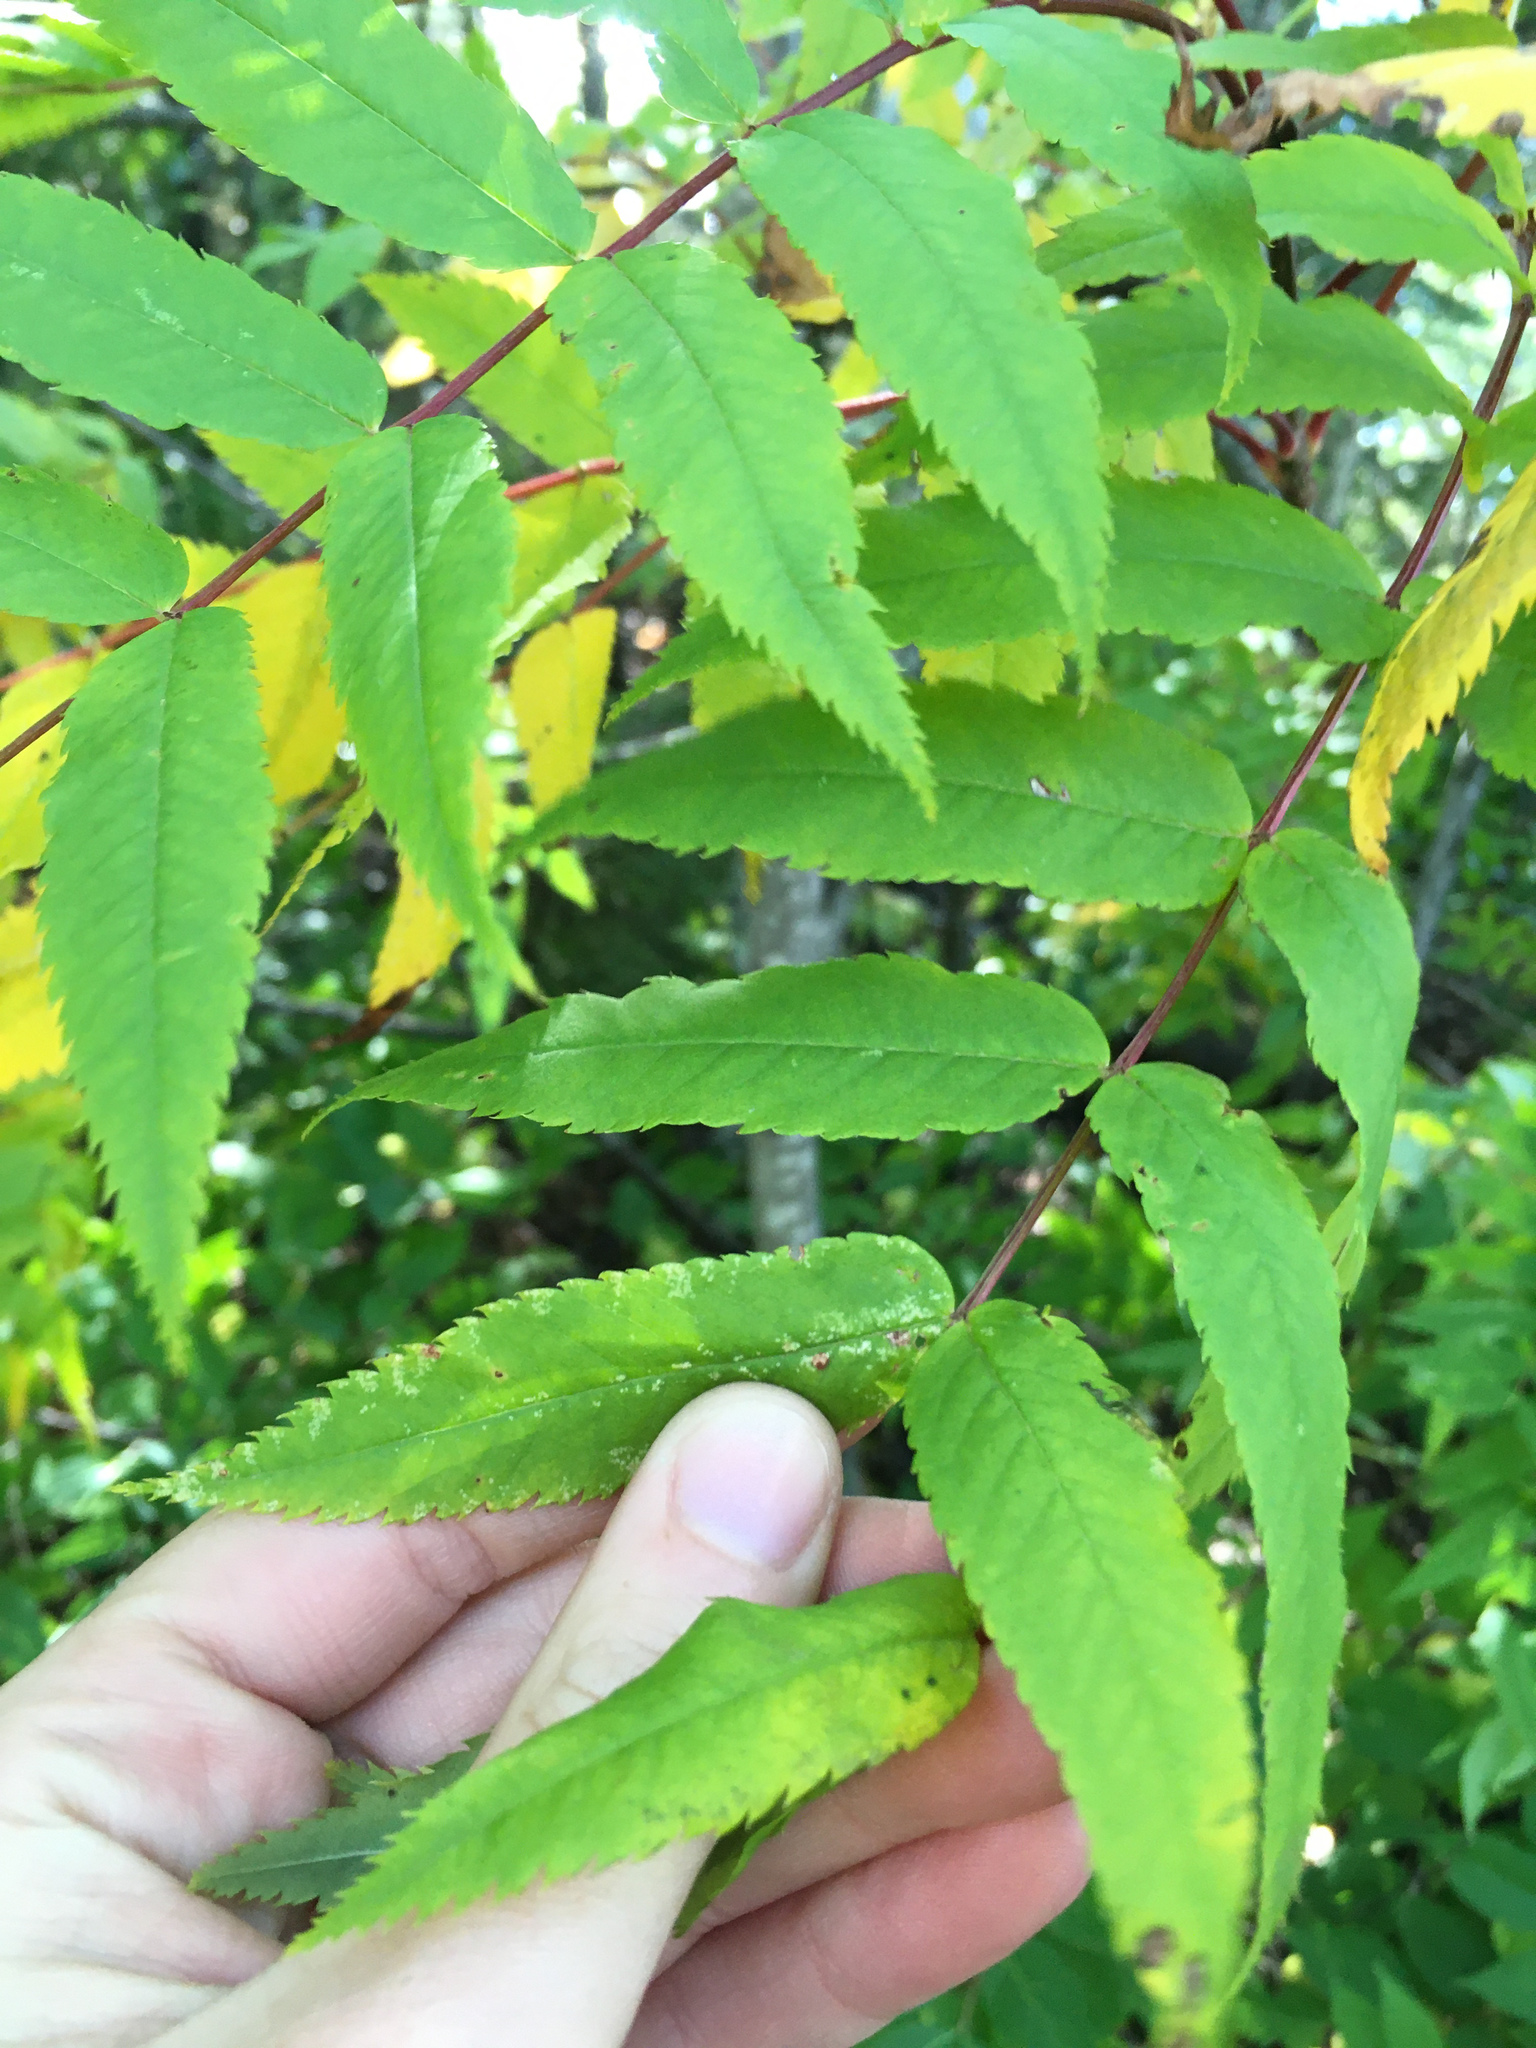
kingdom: Plantae
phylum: Tracheophyta
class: Magnoliopsida
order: Rosales
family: Rosaceae
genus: Sorbus
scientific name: Sorbus americana
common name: American mountain-ash
